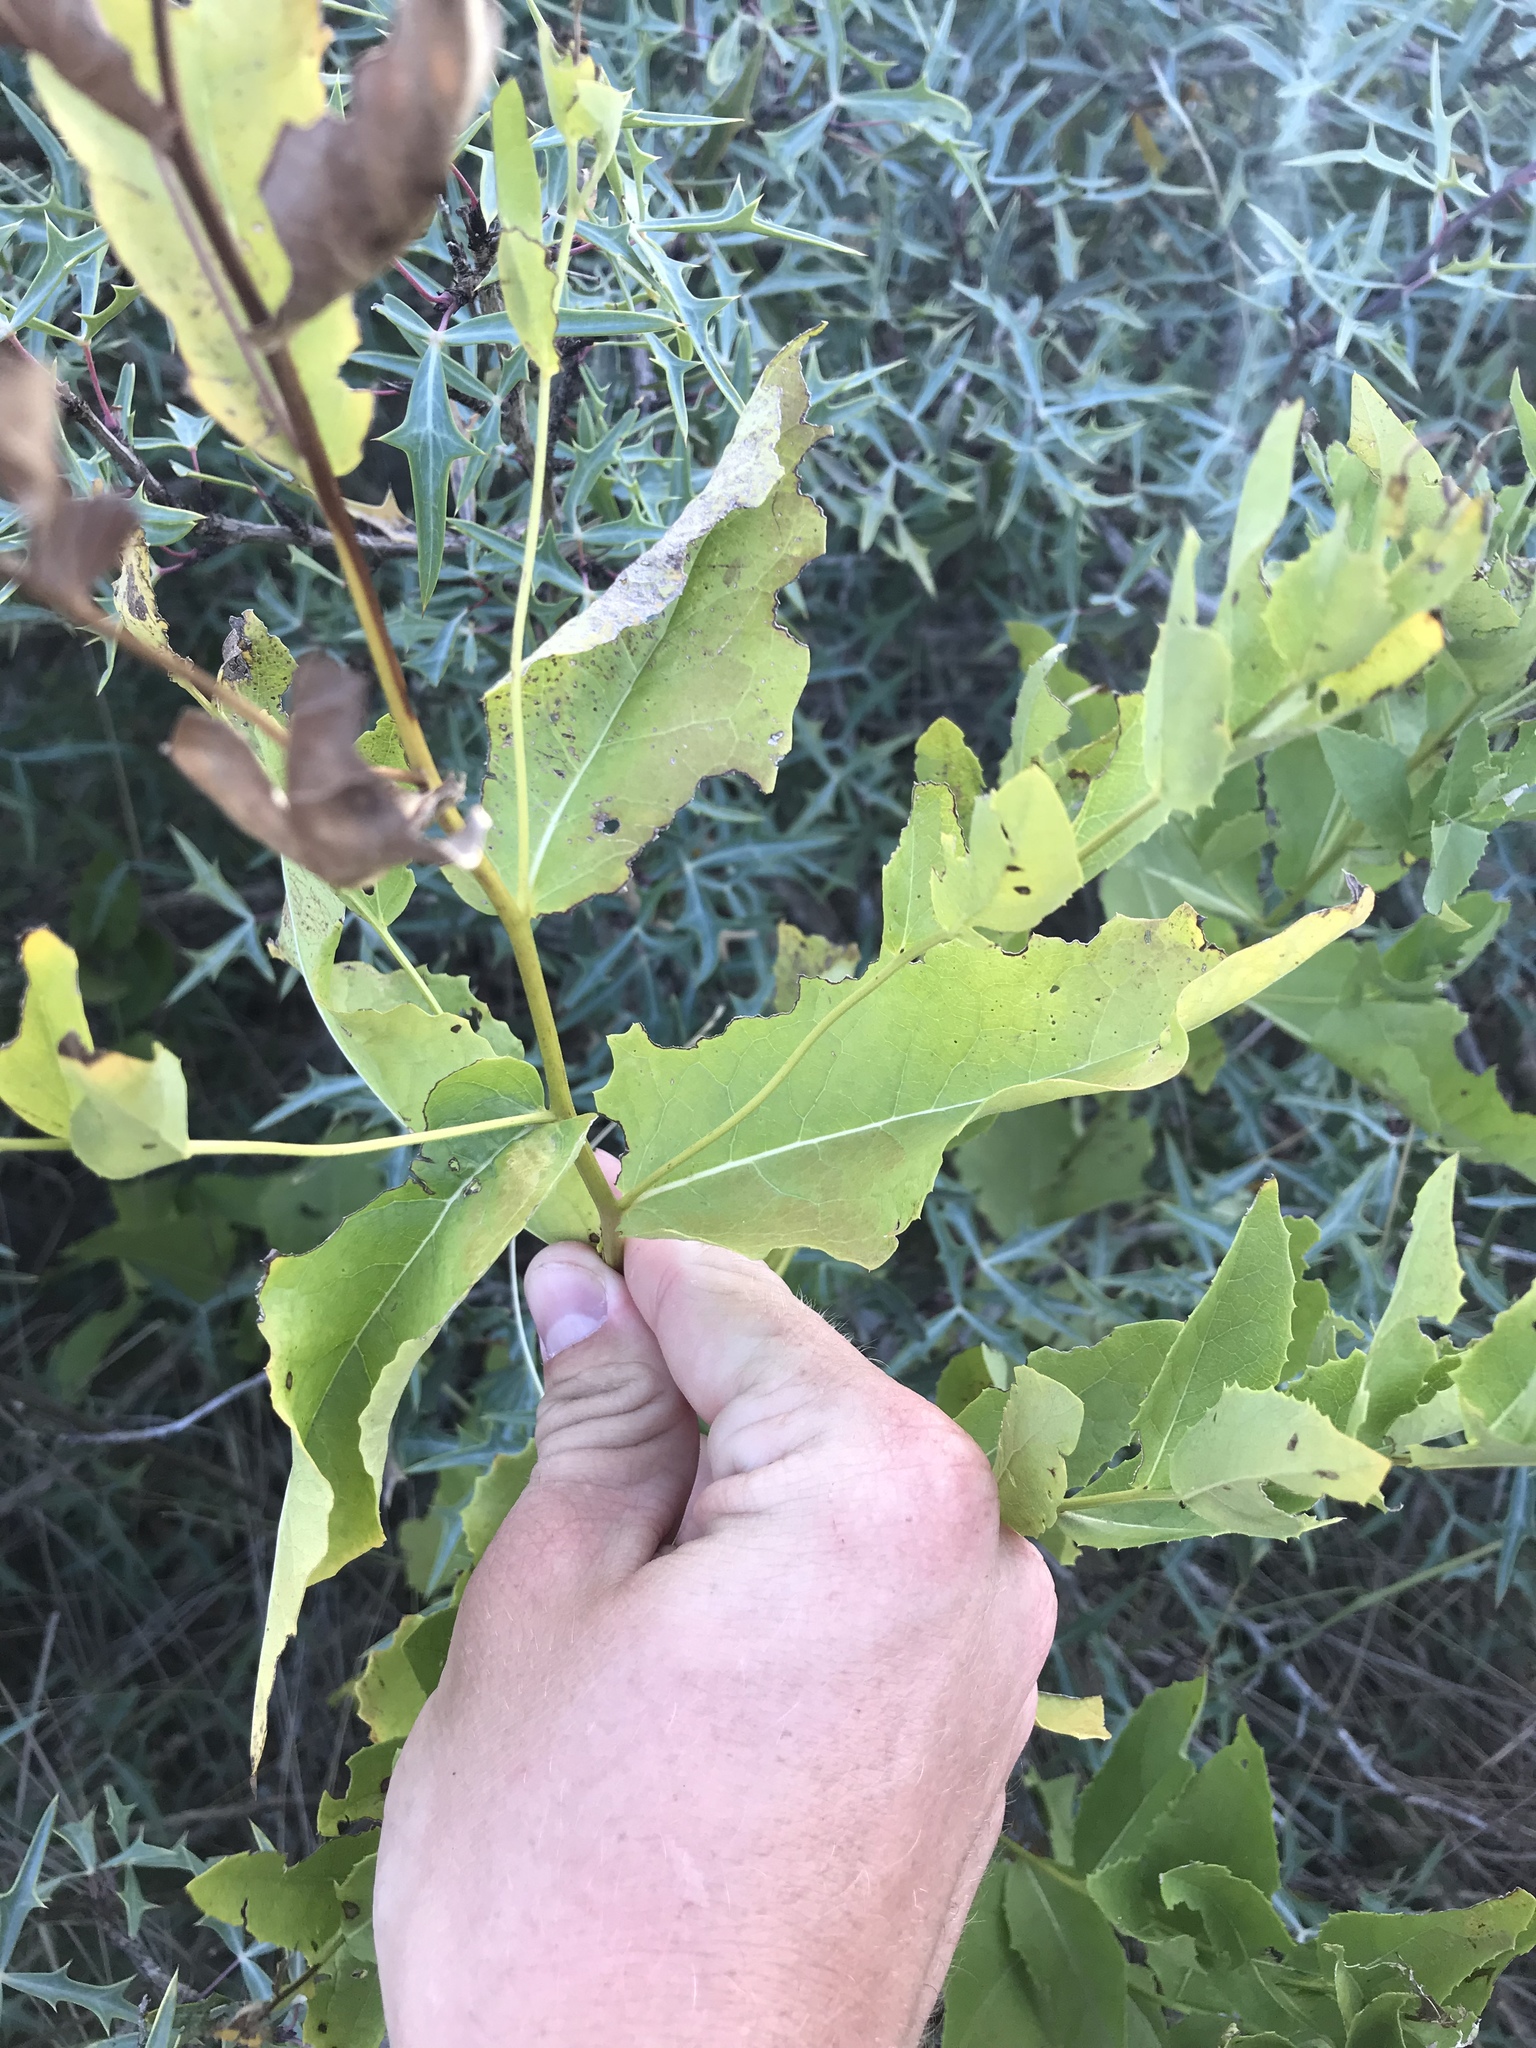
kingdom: Plantae
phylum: Tracheophyta
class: Magnoliopsida
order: Asterales
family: Asteraceae
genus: Acourtia
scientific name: Acourtia wrightii
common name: Brownfoot
